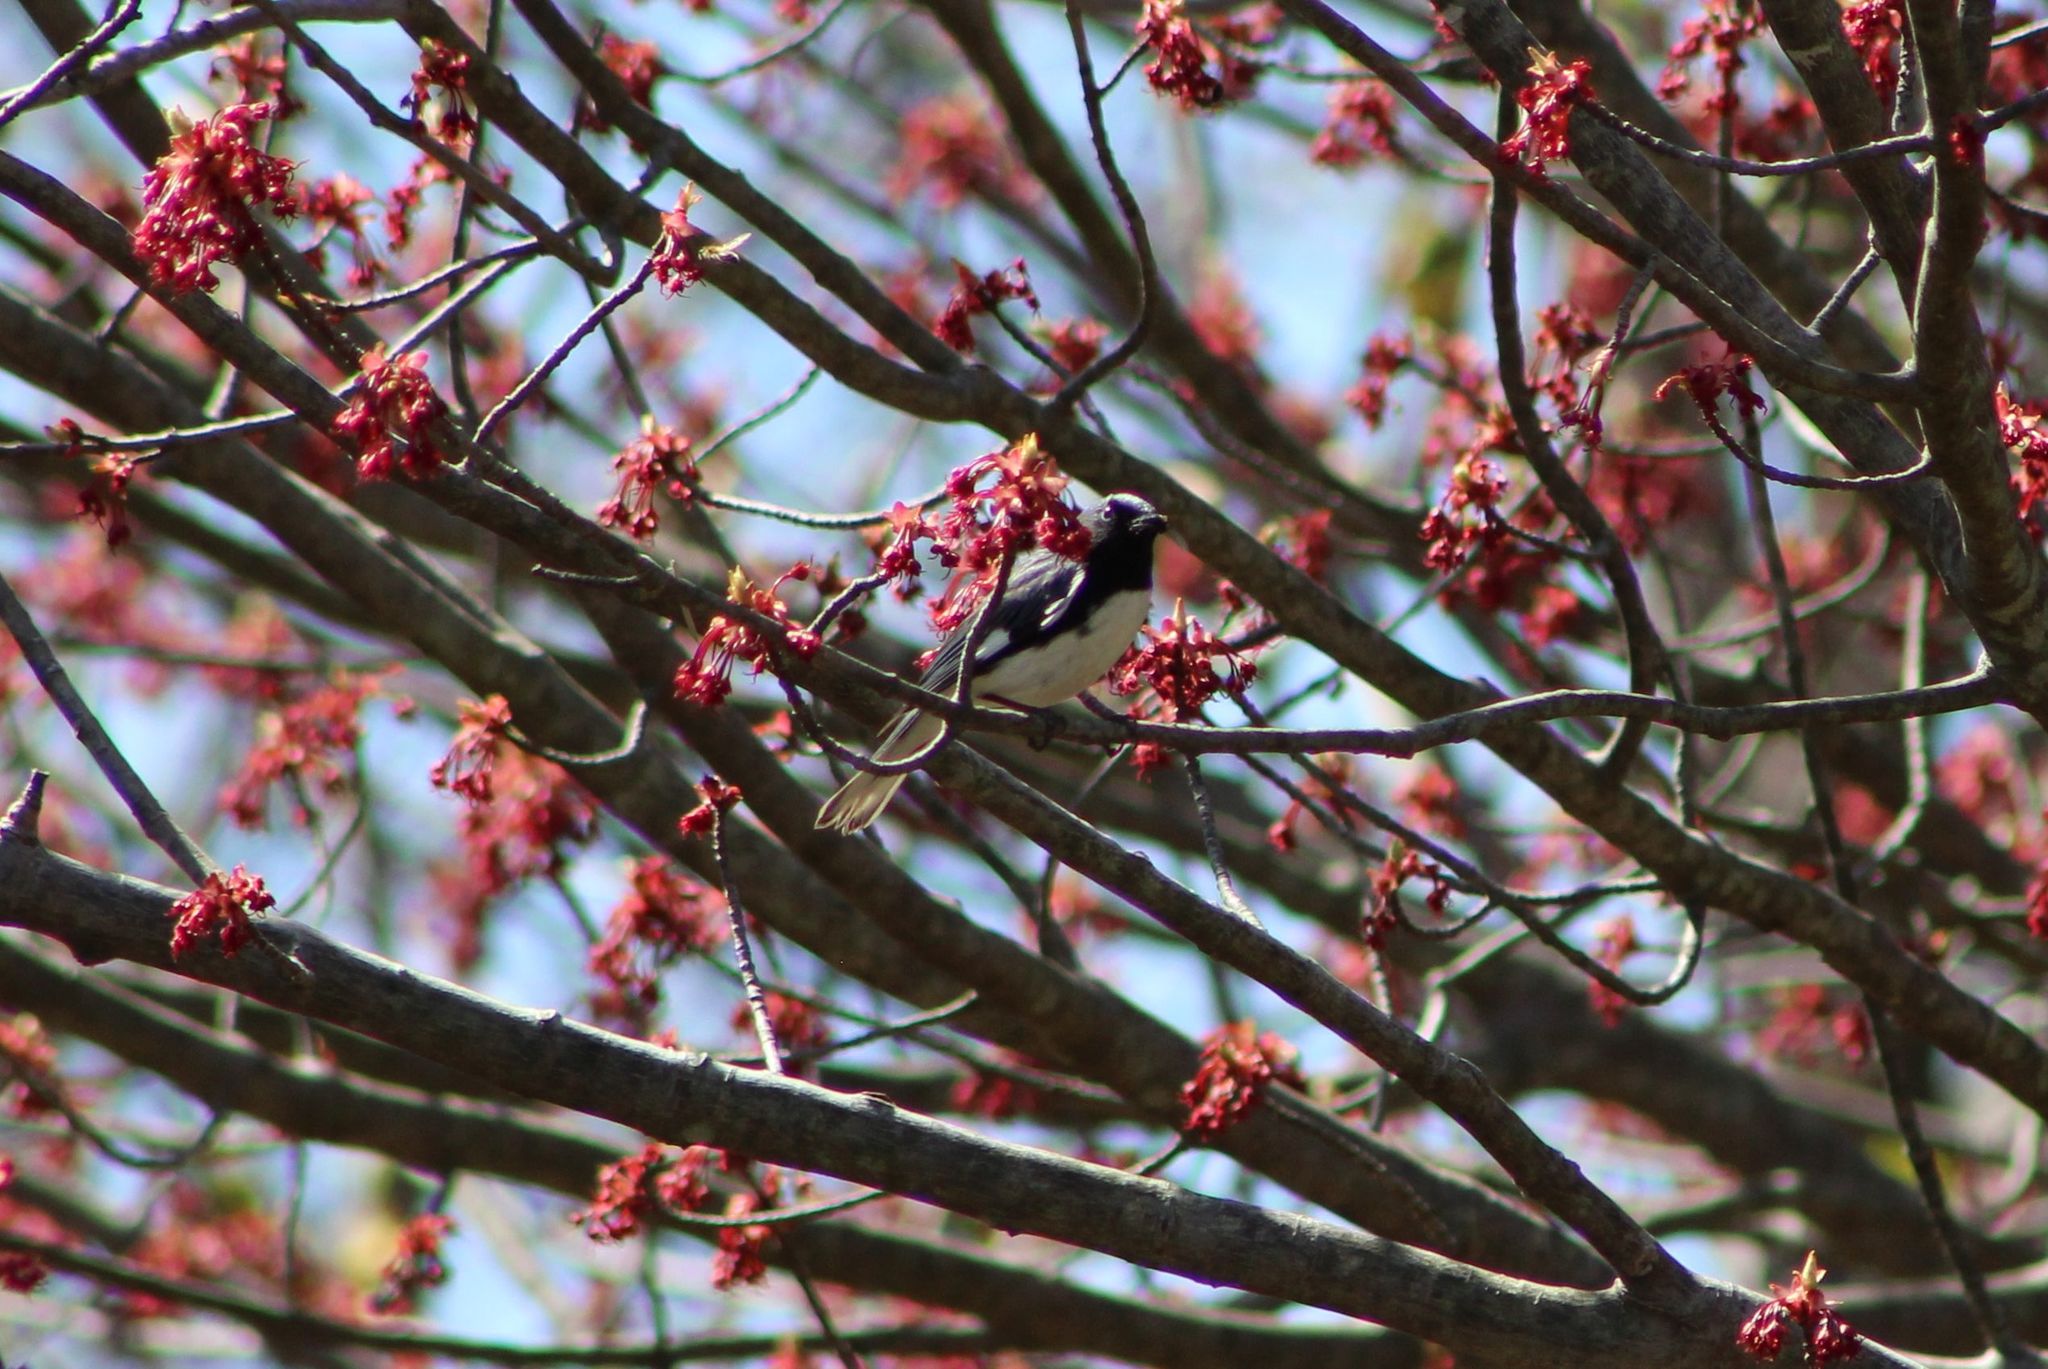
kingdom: Animalia
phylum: Chordata
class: Aves
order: Passeriformes
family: Parulidae
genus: Setophaga
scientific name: Setophaga caerulescens
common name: Black-throated blue warbler
